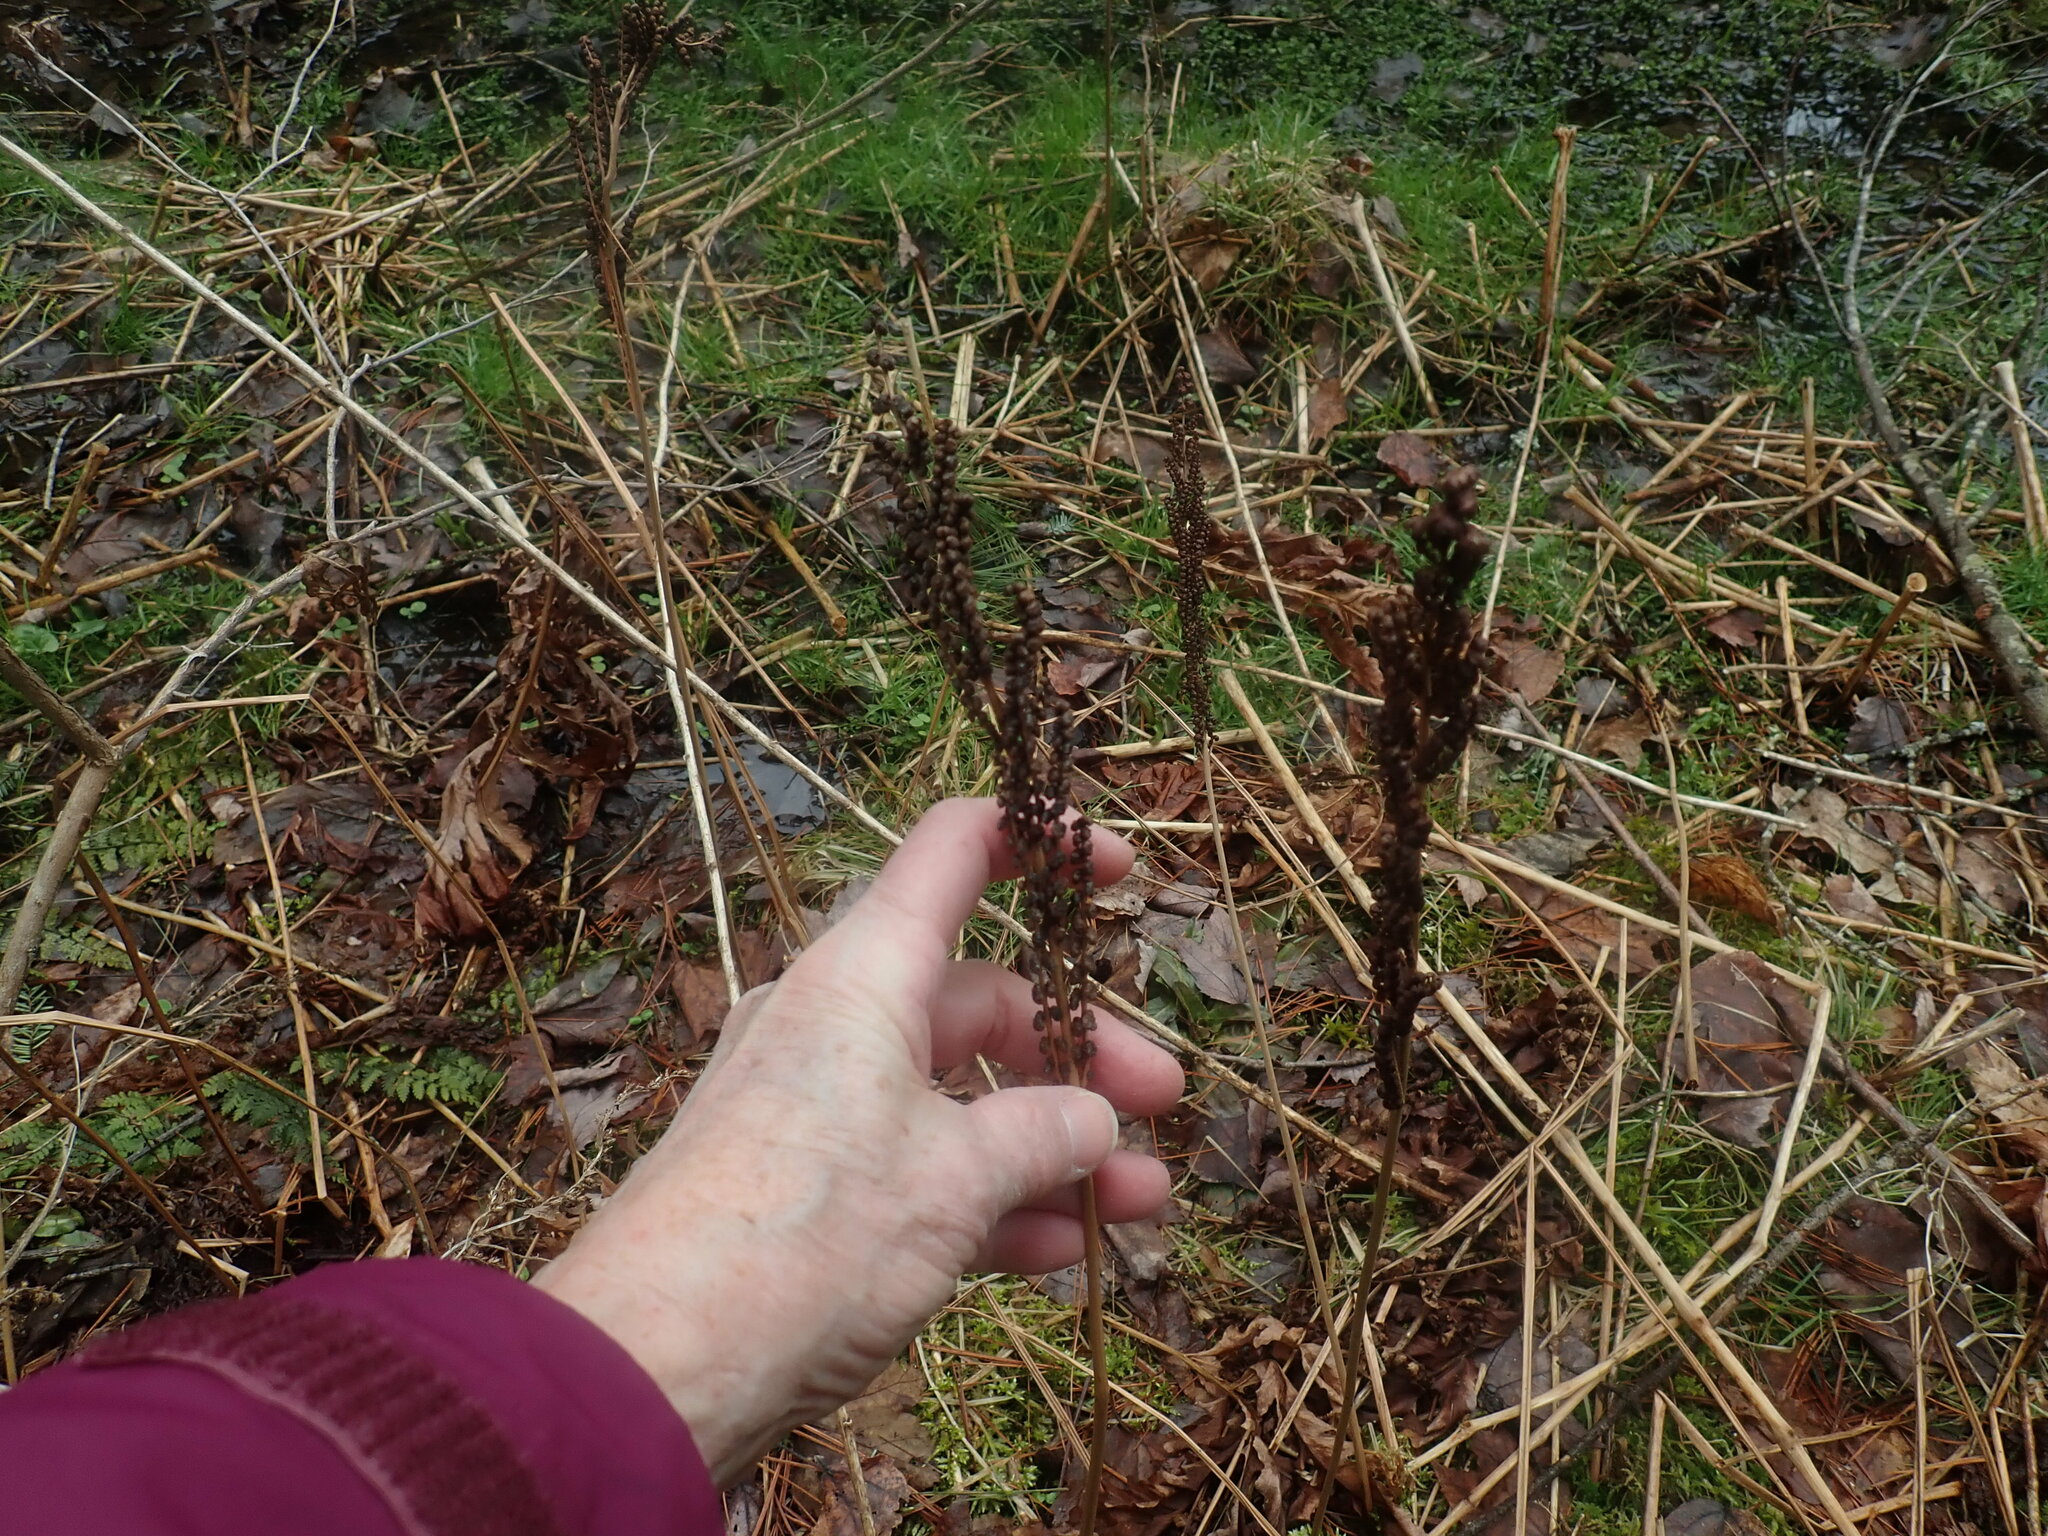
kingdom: Plantae
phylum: Tracheophyta
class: Polypodiopsida
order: Polypodiales
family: Onocleaceae
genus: Onoclea
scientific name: Onoclea sensibilis
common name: Sensitive fern
